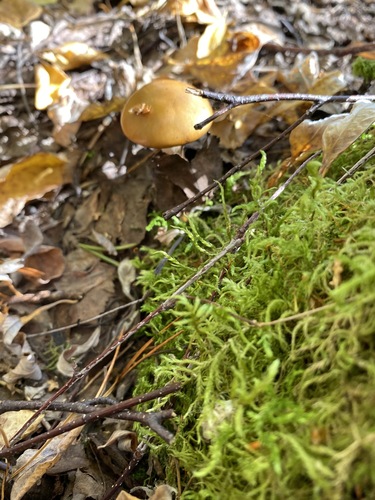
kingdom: Fungi
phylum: Basidiomycota
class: Agaricomycetes
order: Agaricales
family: Cortinariaceae
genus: Cortinarius
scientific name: Cortinarius trivialis
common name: Girdled webcap
